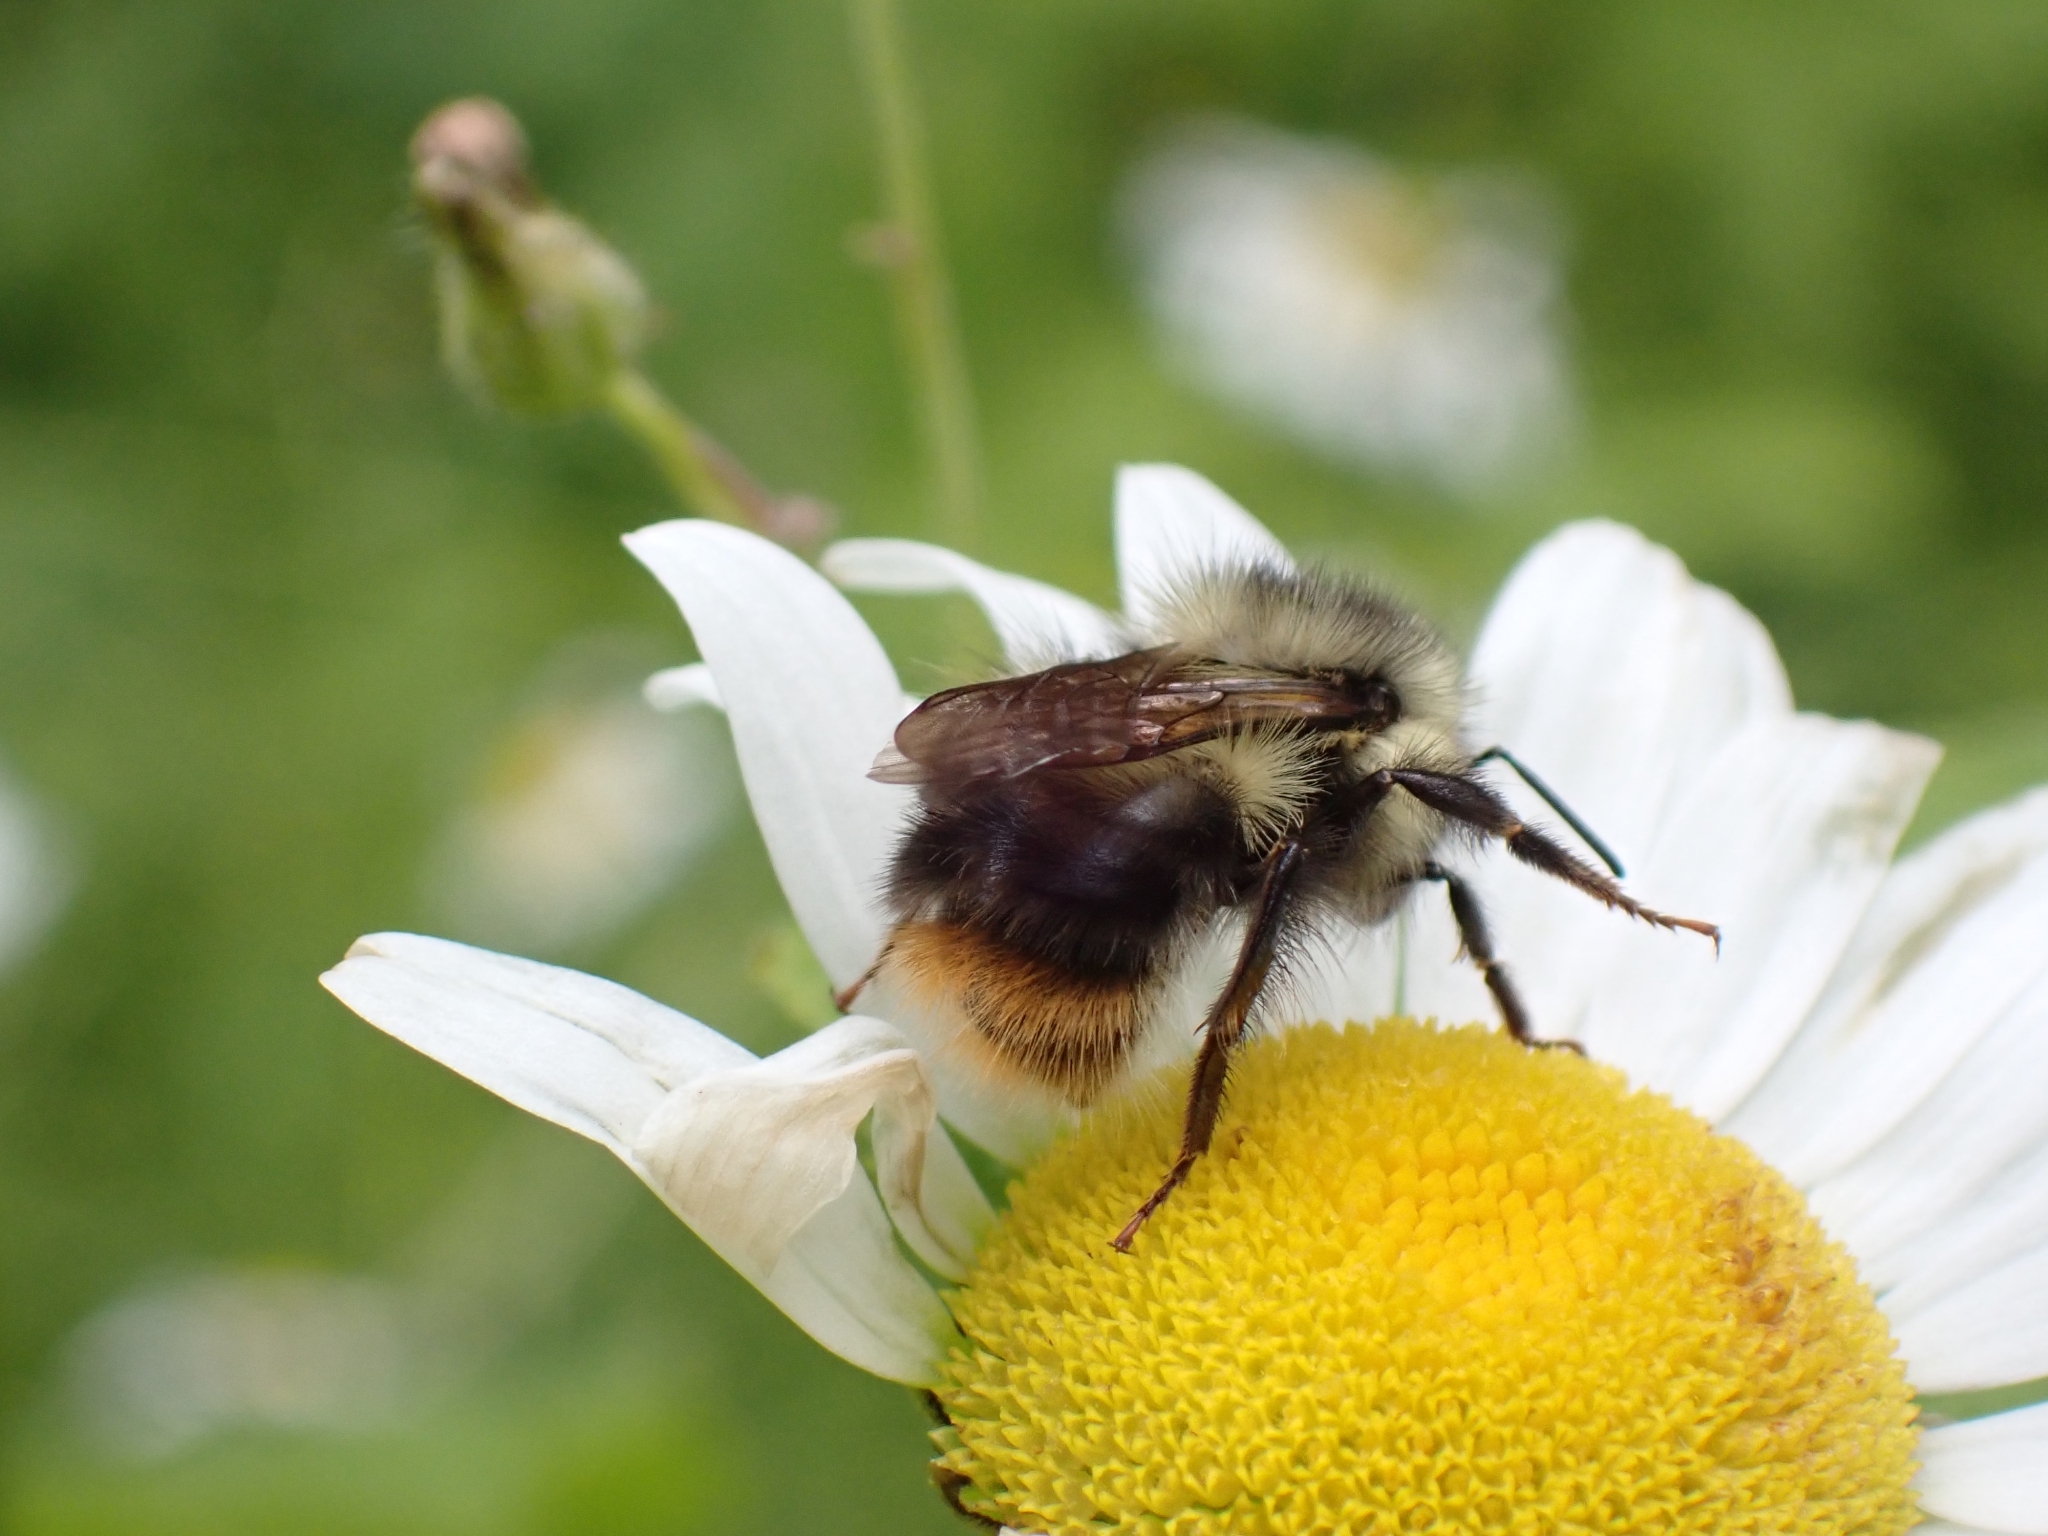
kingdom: Animalia
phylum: Arthropoda
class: Insecta
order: Hymenoptera
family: Apidae
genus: Bombus
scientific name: Bombus mixtus
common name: Fuzzy-horned bumble bee
